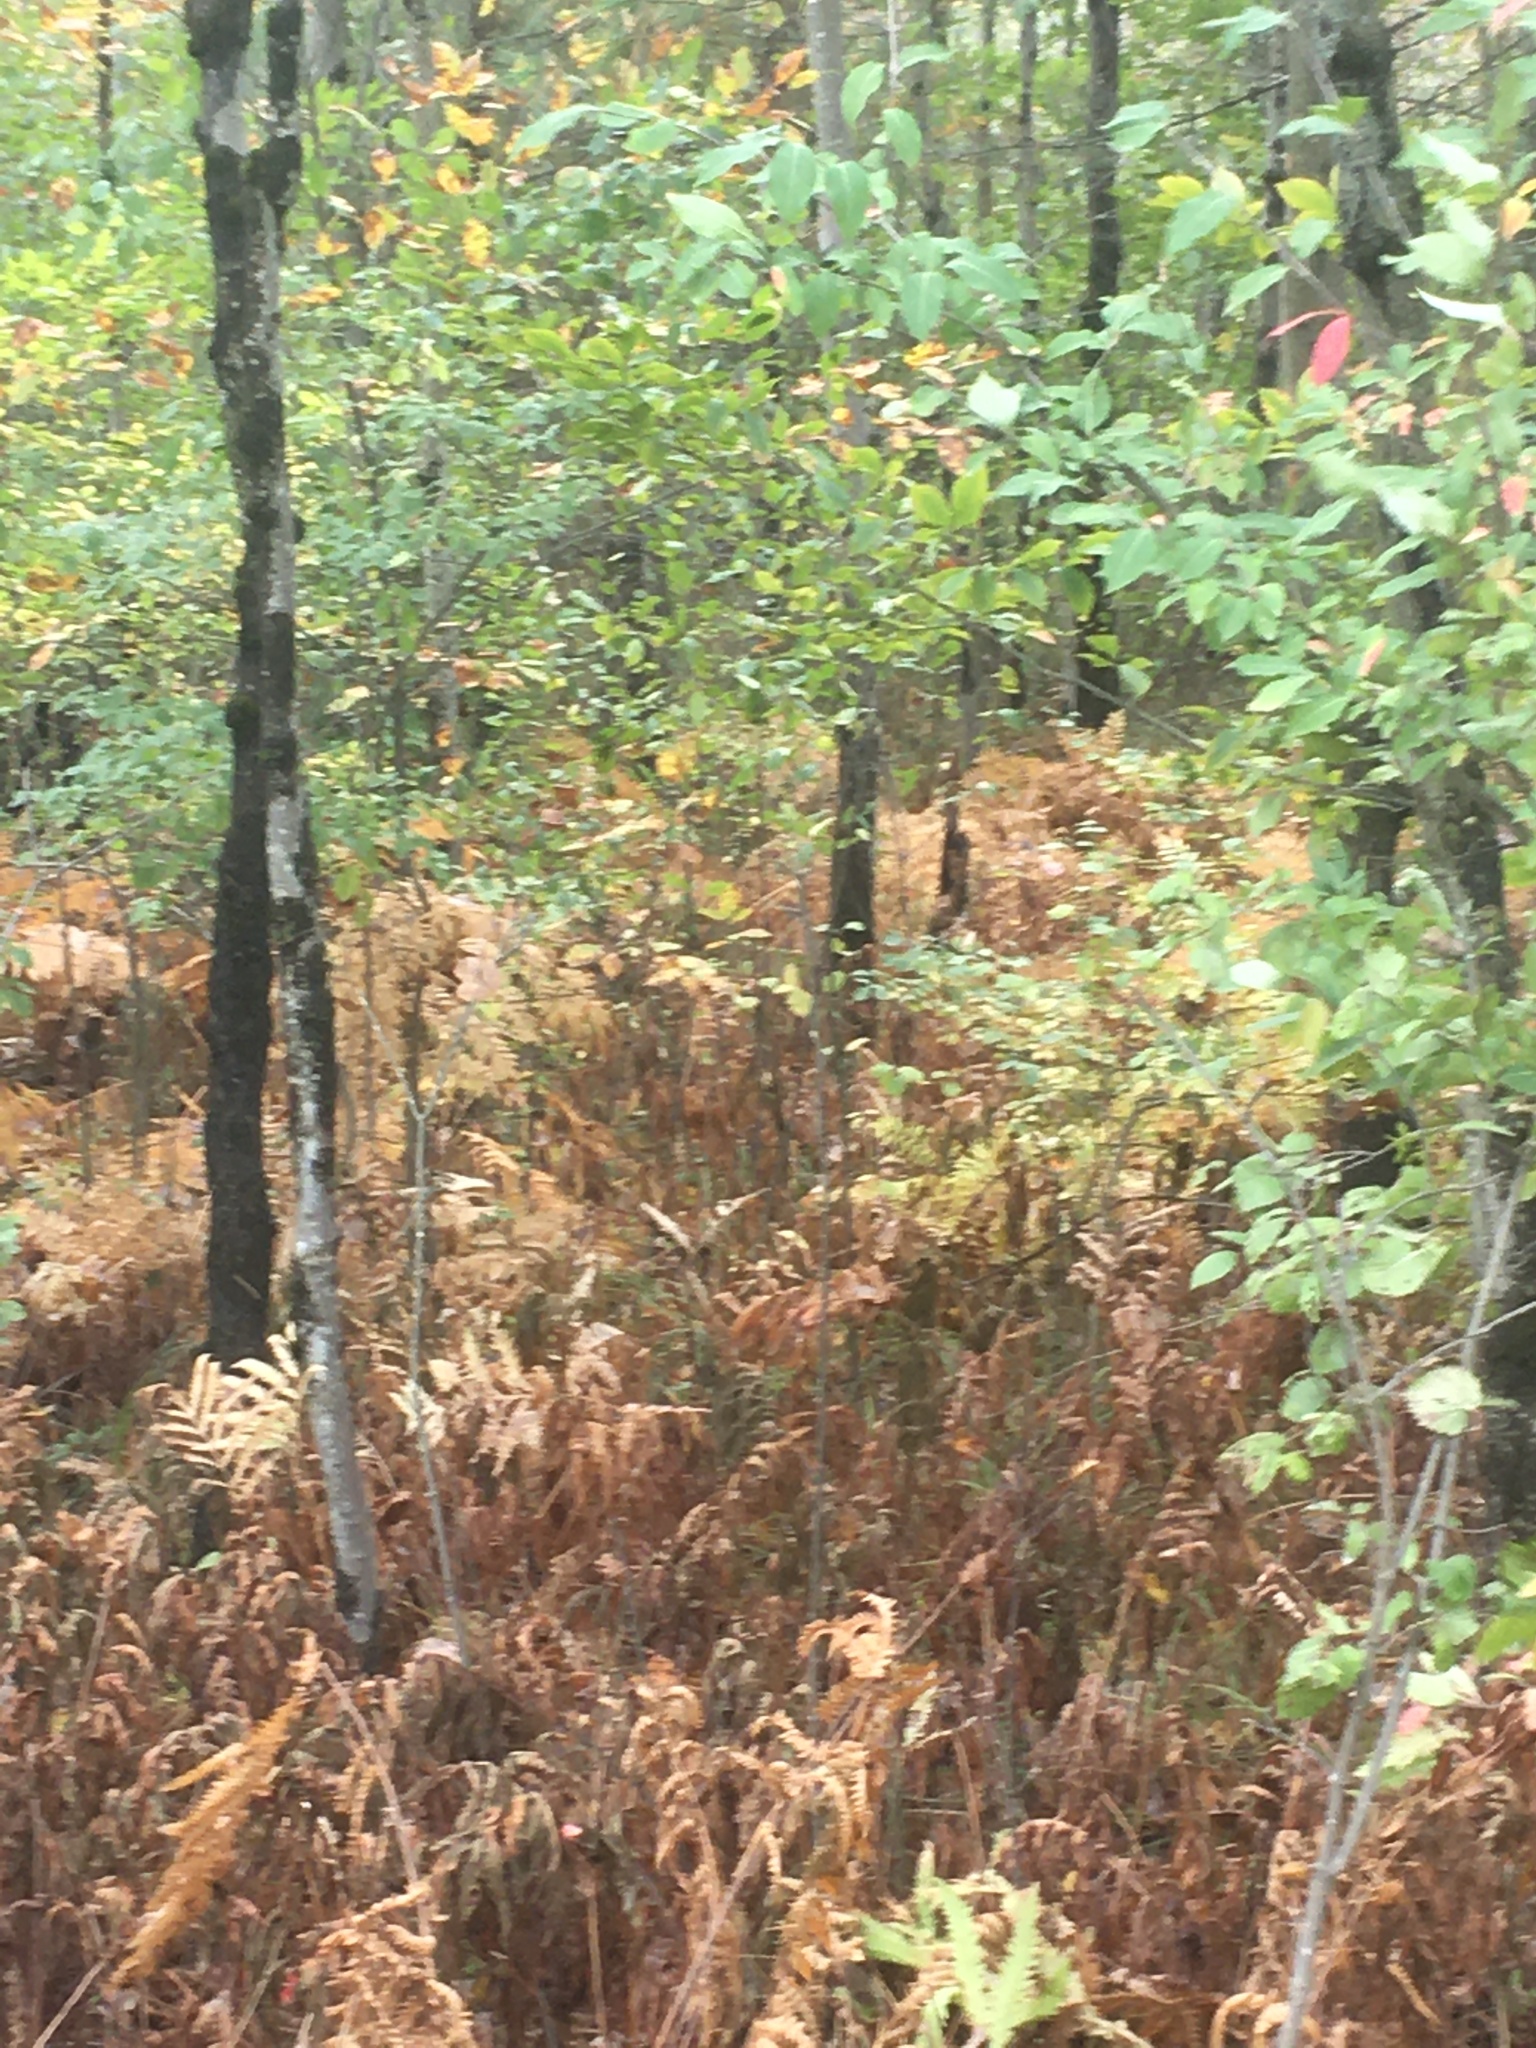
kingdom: Plantae
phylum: Tracheophyta
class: Polypodiopsida
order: Polypodiales
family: Onocleaceae
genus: Onoclea
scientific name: Onoclea sensibilis
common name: Sensitive fern
